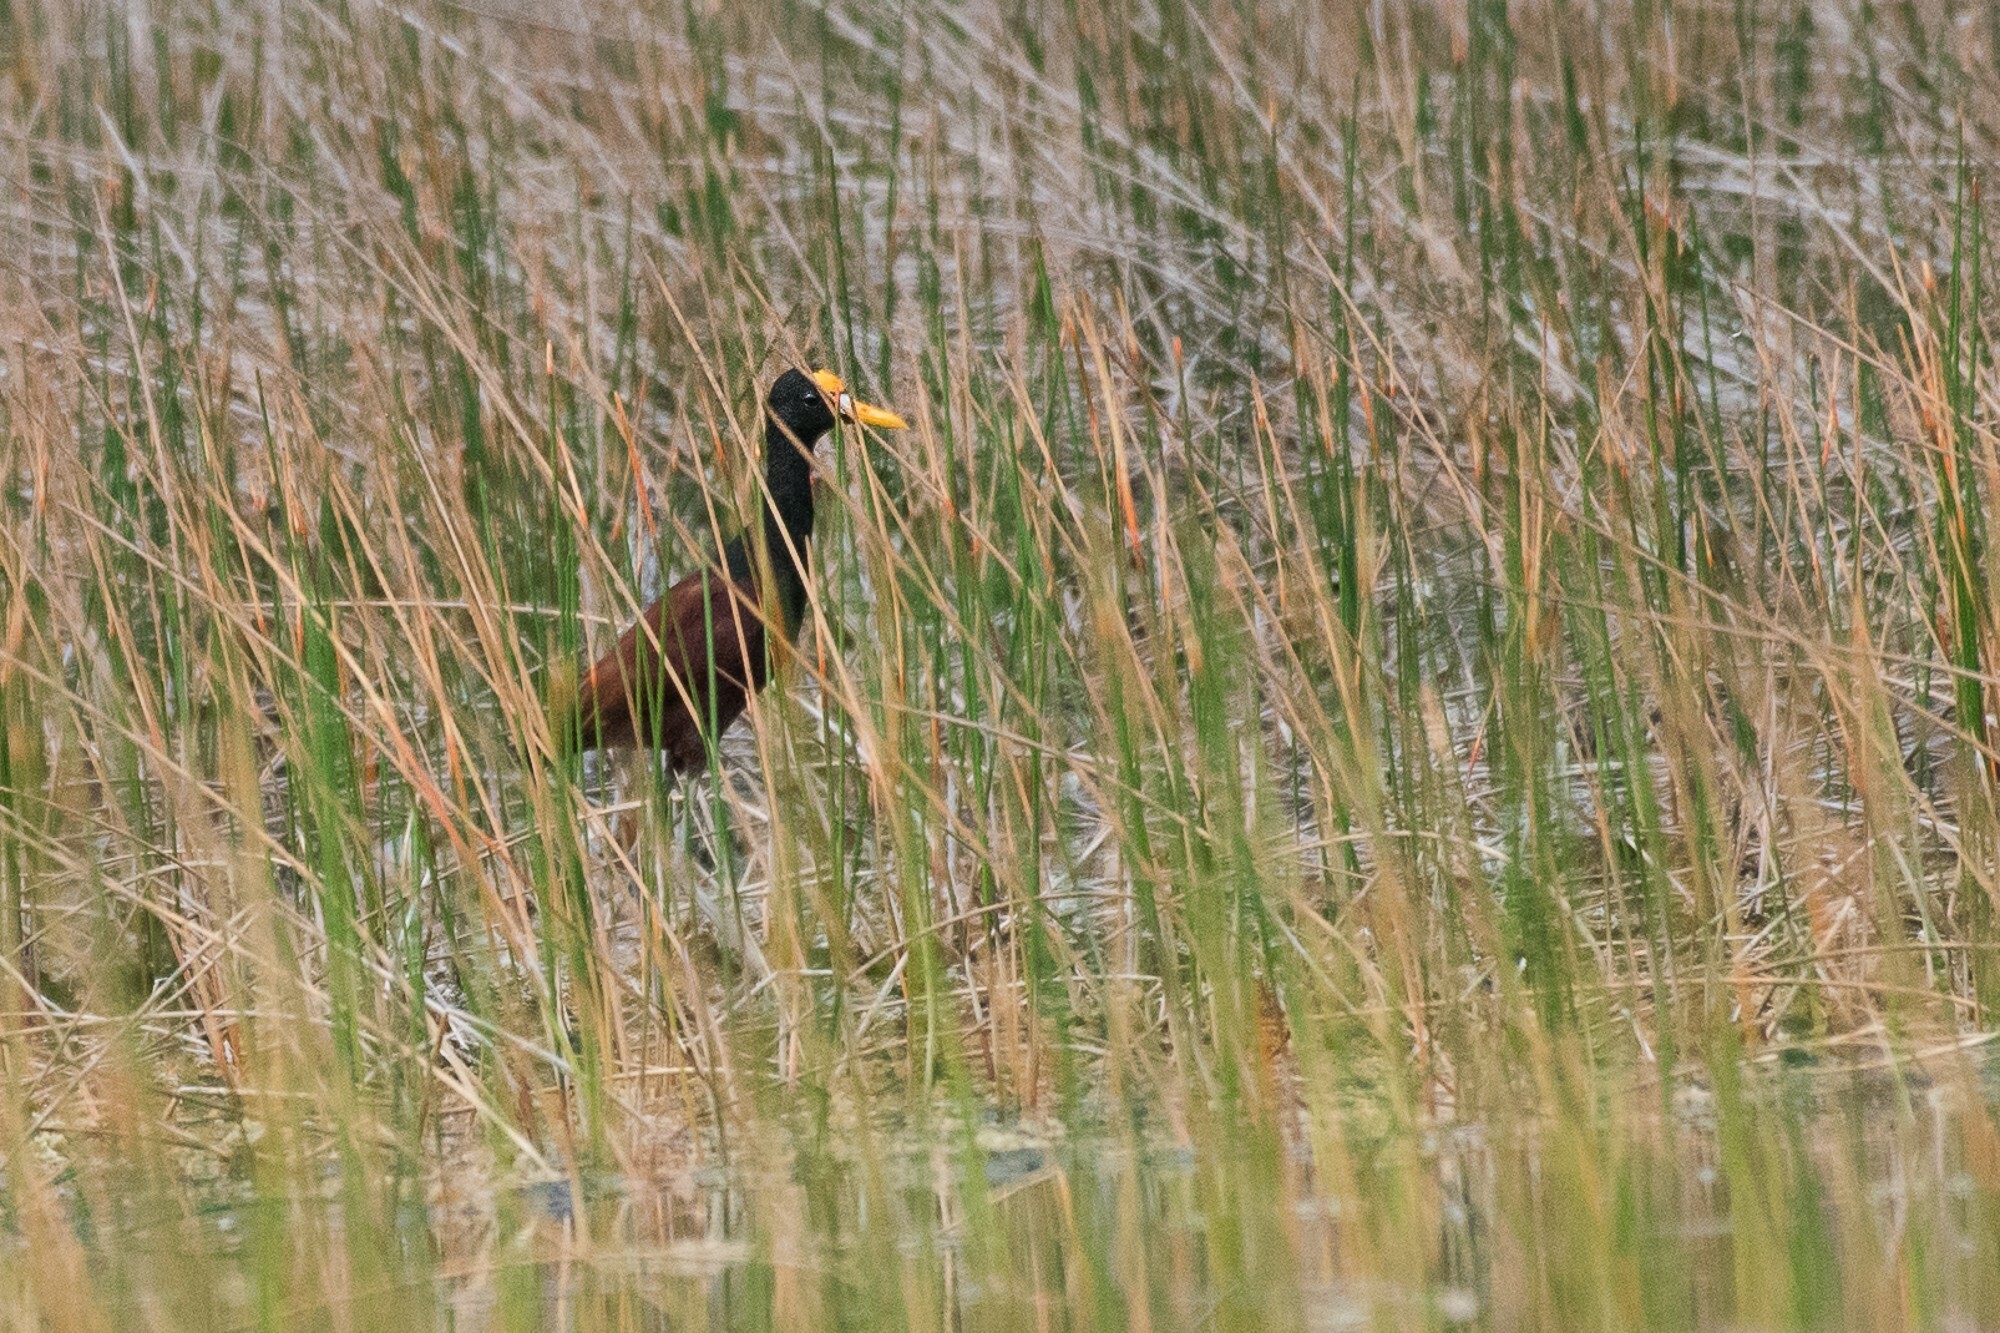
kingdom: Animalia
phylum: Chordata
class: Aves
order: Charadriiformes
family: Jacanidae
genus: Jacana
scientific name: Jacana spinosa
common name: Northern jacana
